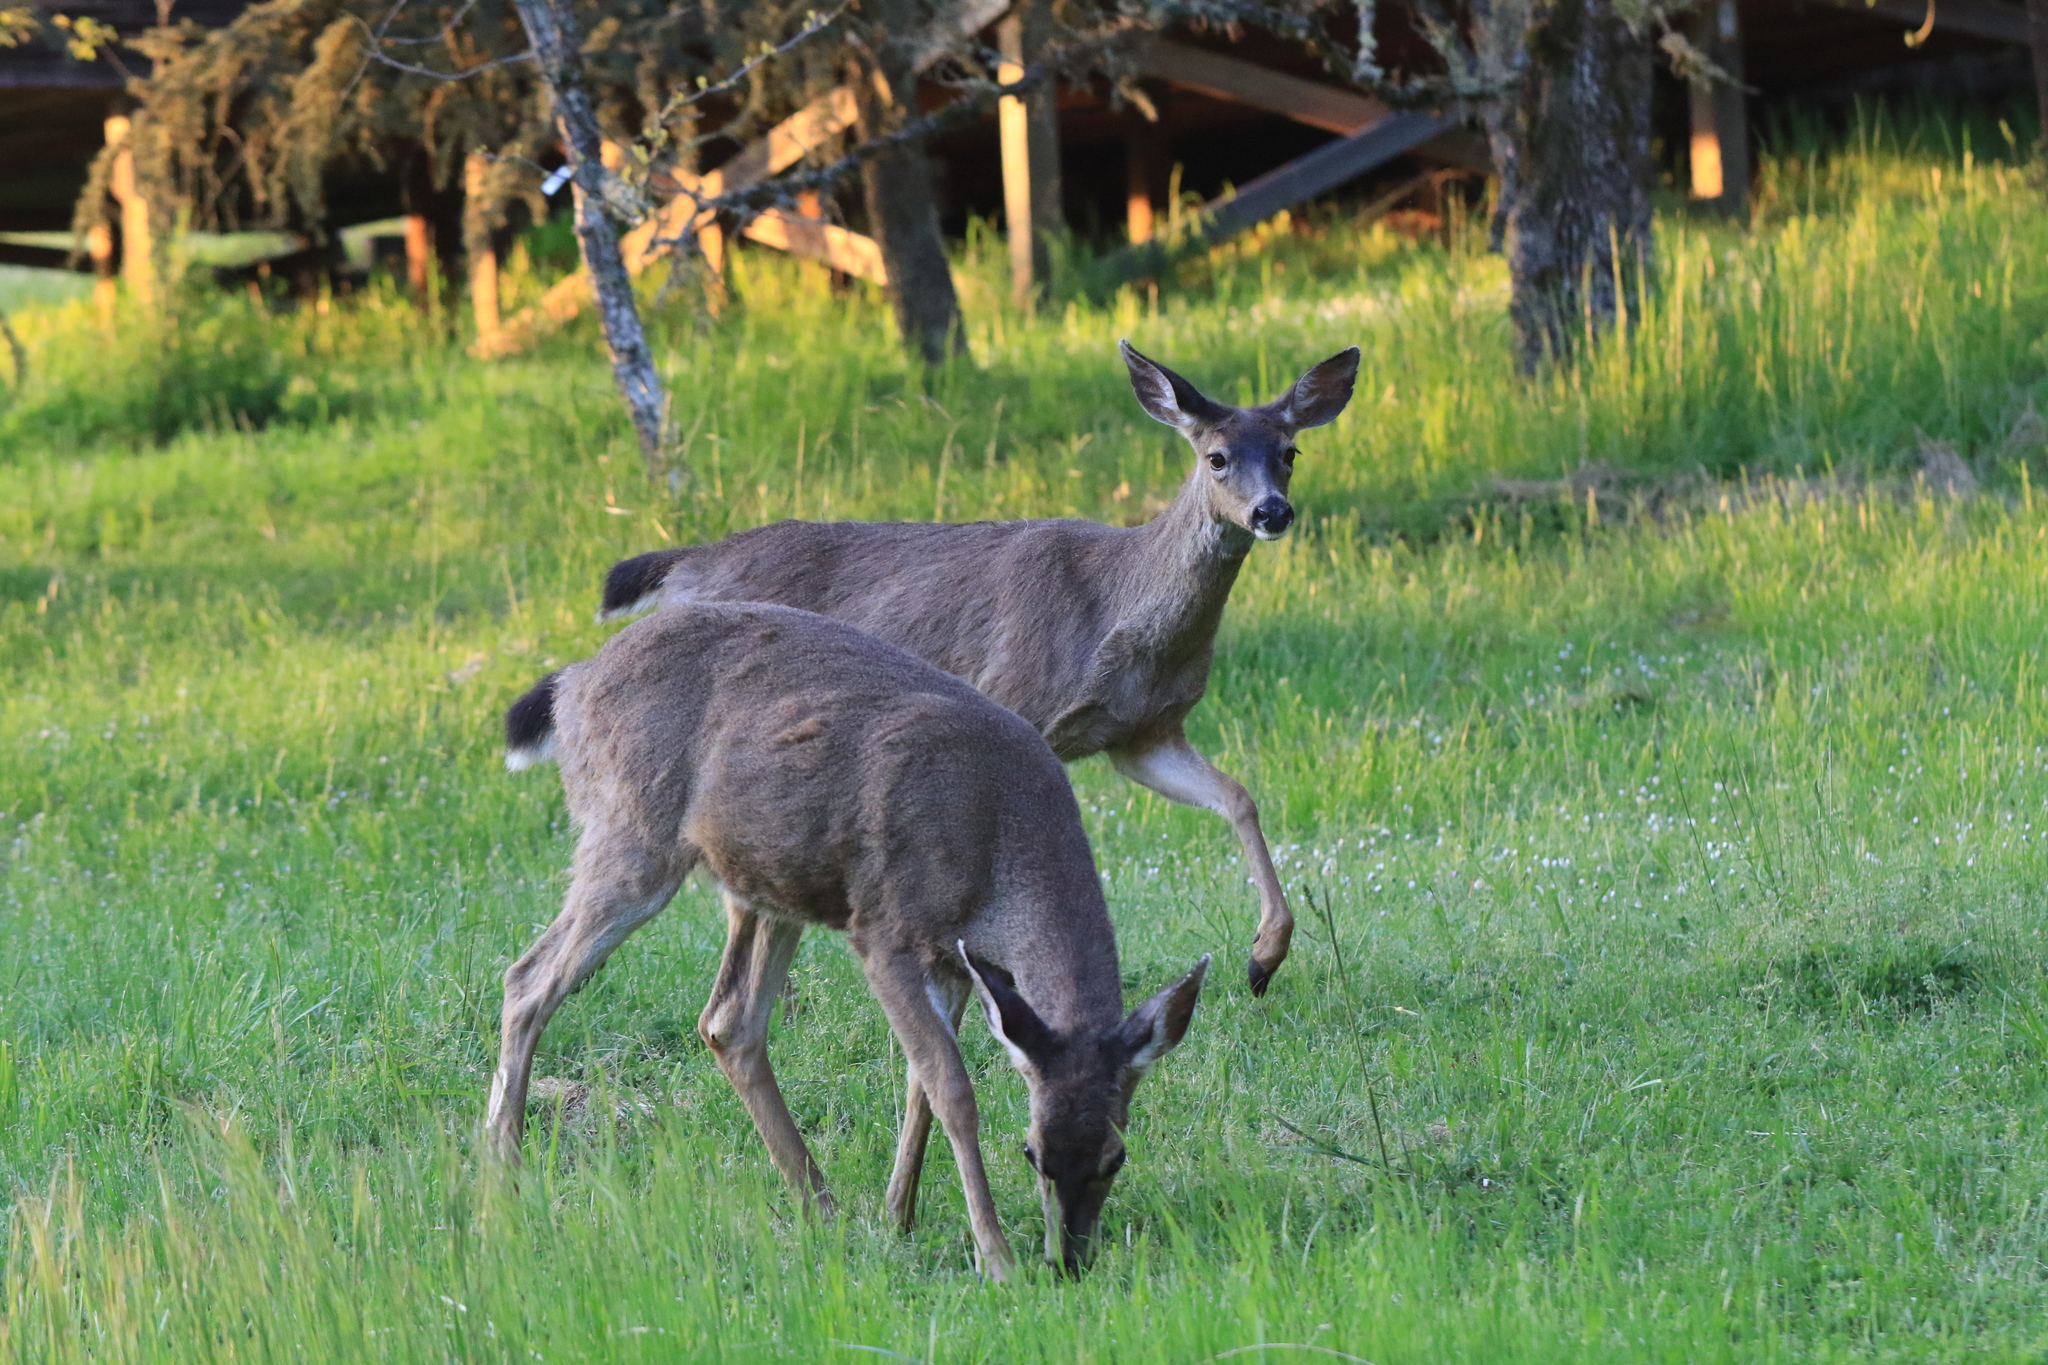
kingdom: Animalia
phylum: Chordata
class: Mammalia
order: Artiodactyla
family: Cervidae
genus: Odocoileus
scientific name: Odocoileus hemionus
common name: Mule deer
